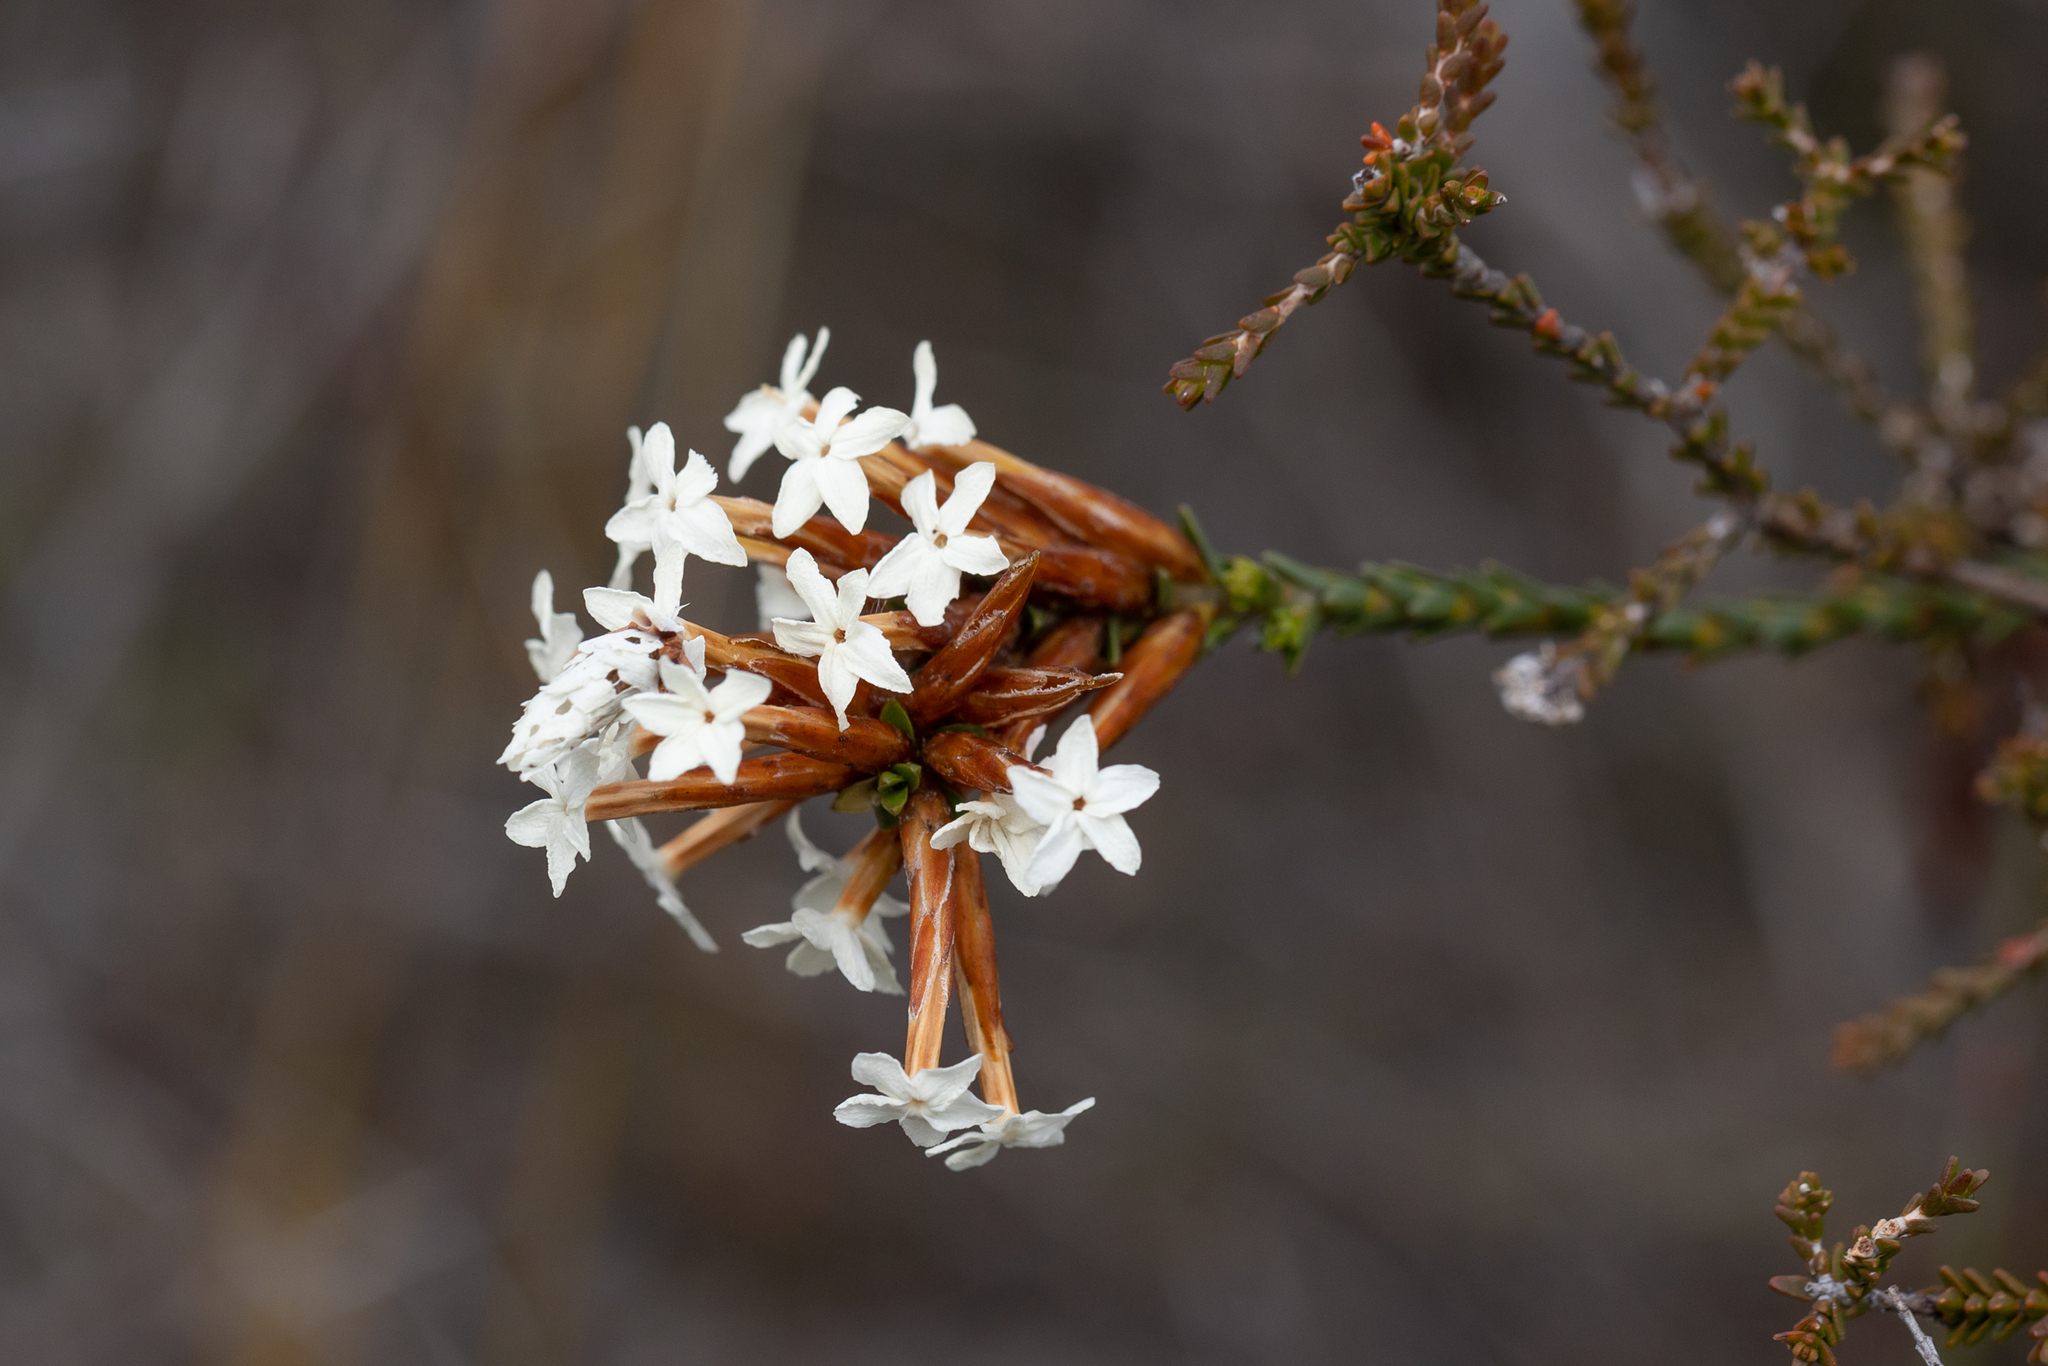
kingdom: Plantae
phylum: Tracheophyta
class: Magnoliopsida
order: Ericales
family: Ericaceae
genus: Lysinema
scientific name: Lysinema ciliatum
